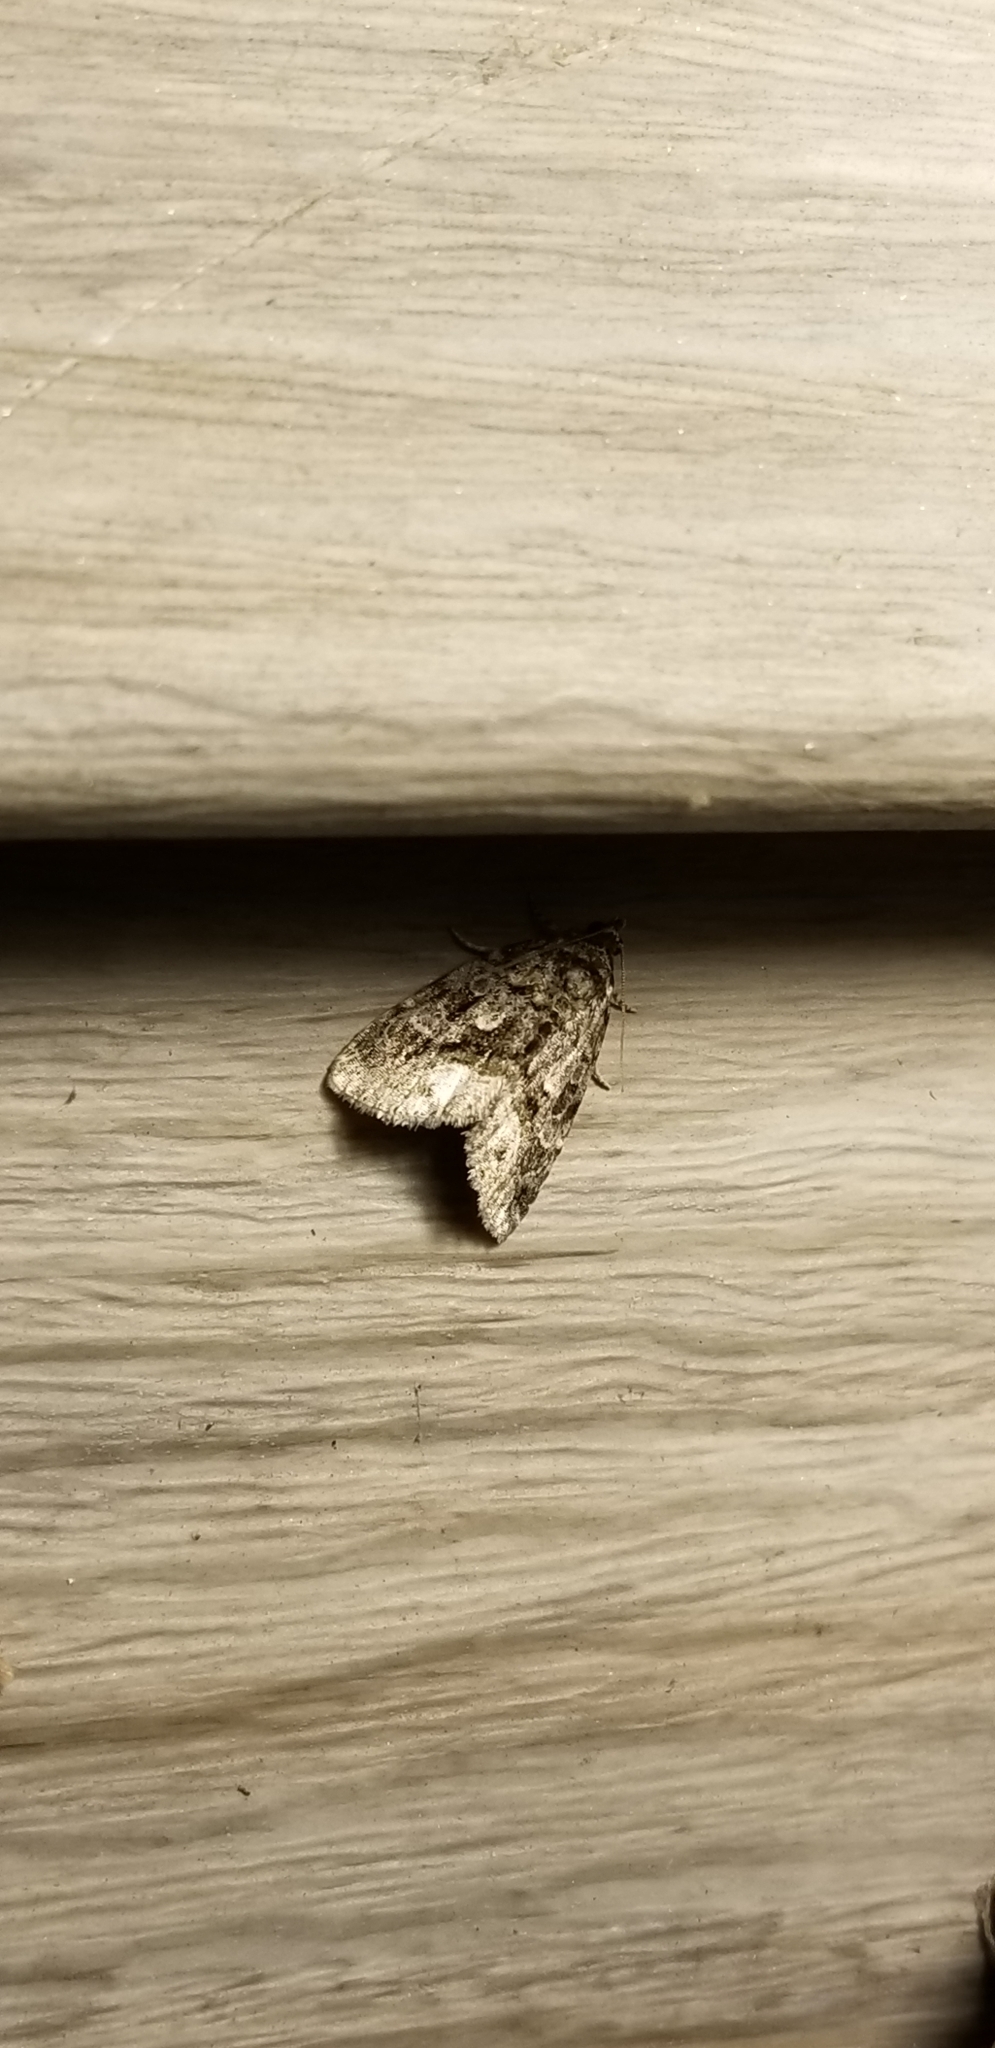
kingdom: Animalia
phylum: Arthropoda
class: Insecta
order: Lepidoptera
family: Noctuidae
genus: Protodeltote
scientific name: Protodeltote muscosula
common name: Large mossy glyph
